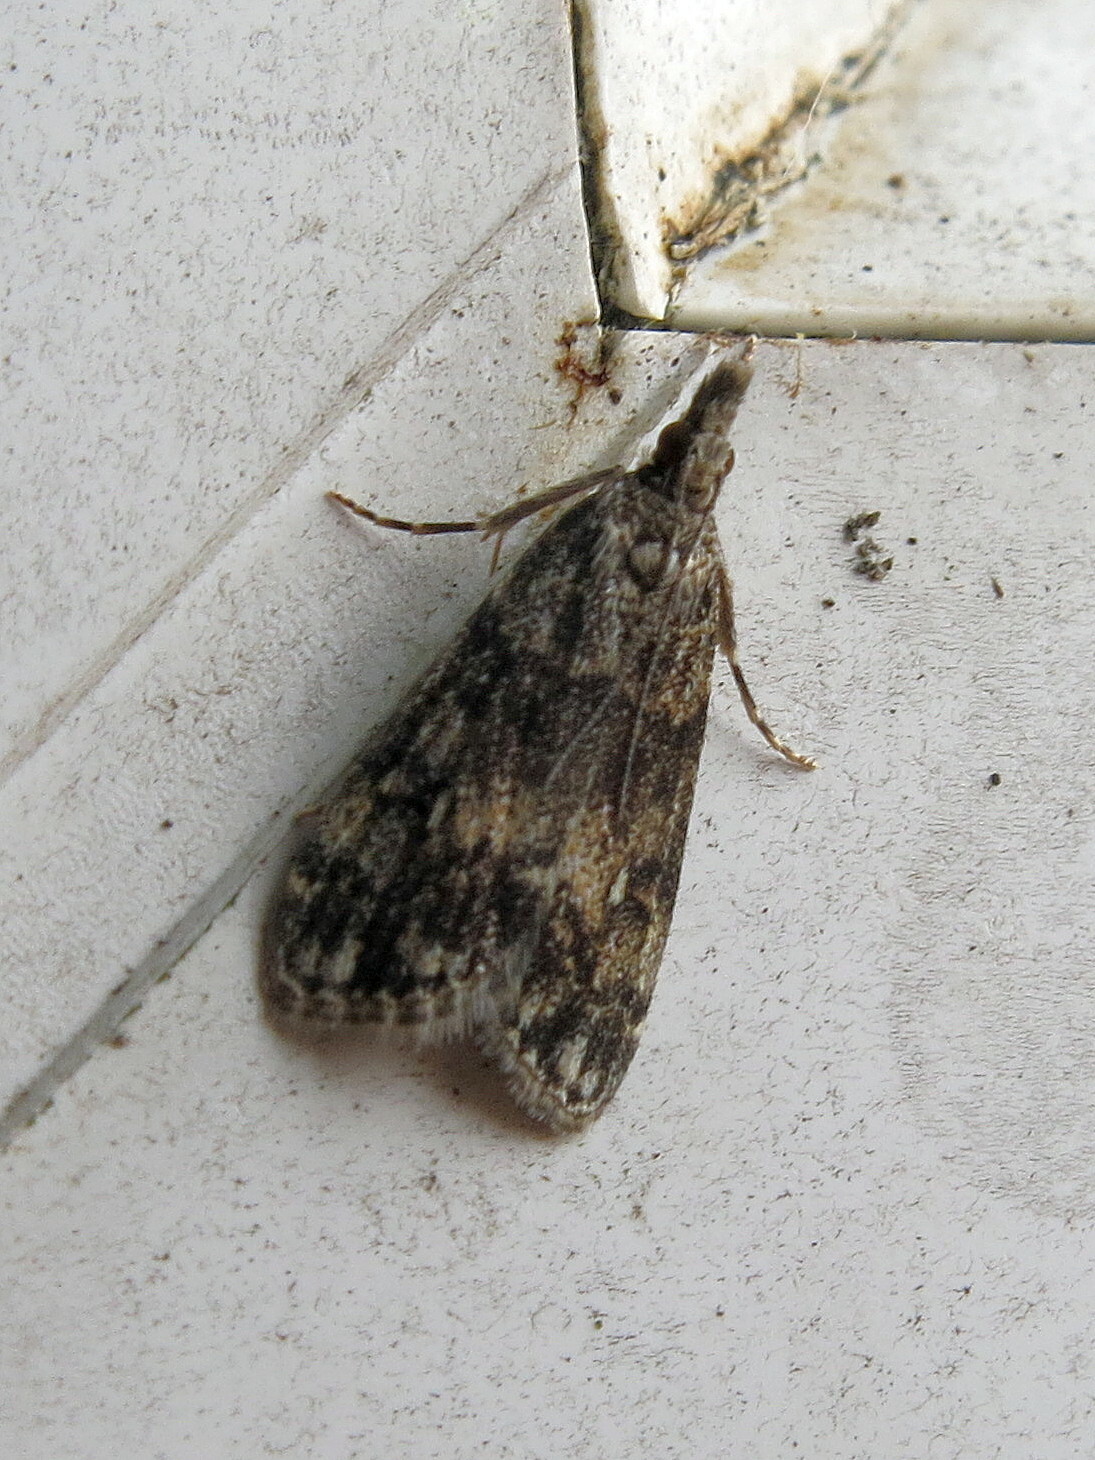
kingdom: Animalia
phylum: Arthropoda
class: Insecta
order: Lepidoptera
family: Crambidae
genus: Eudonia
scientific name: Eudonia lacustrata
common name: Little grey
